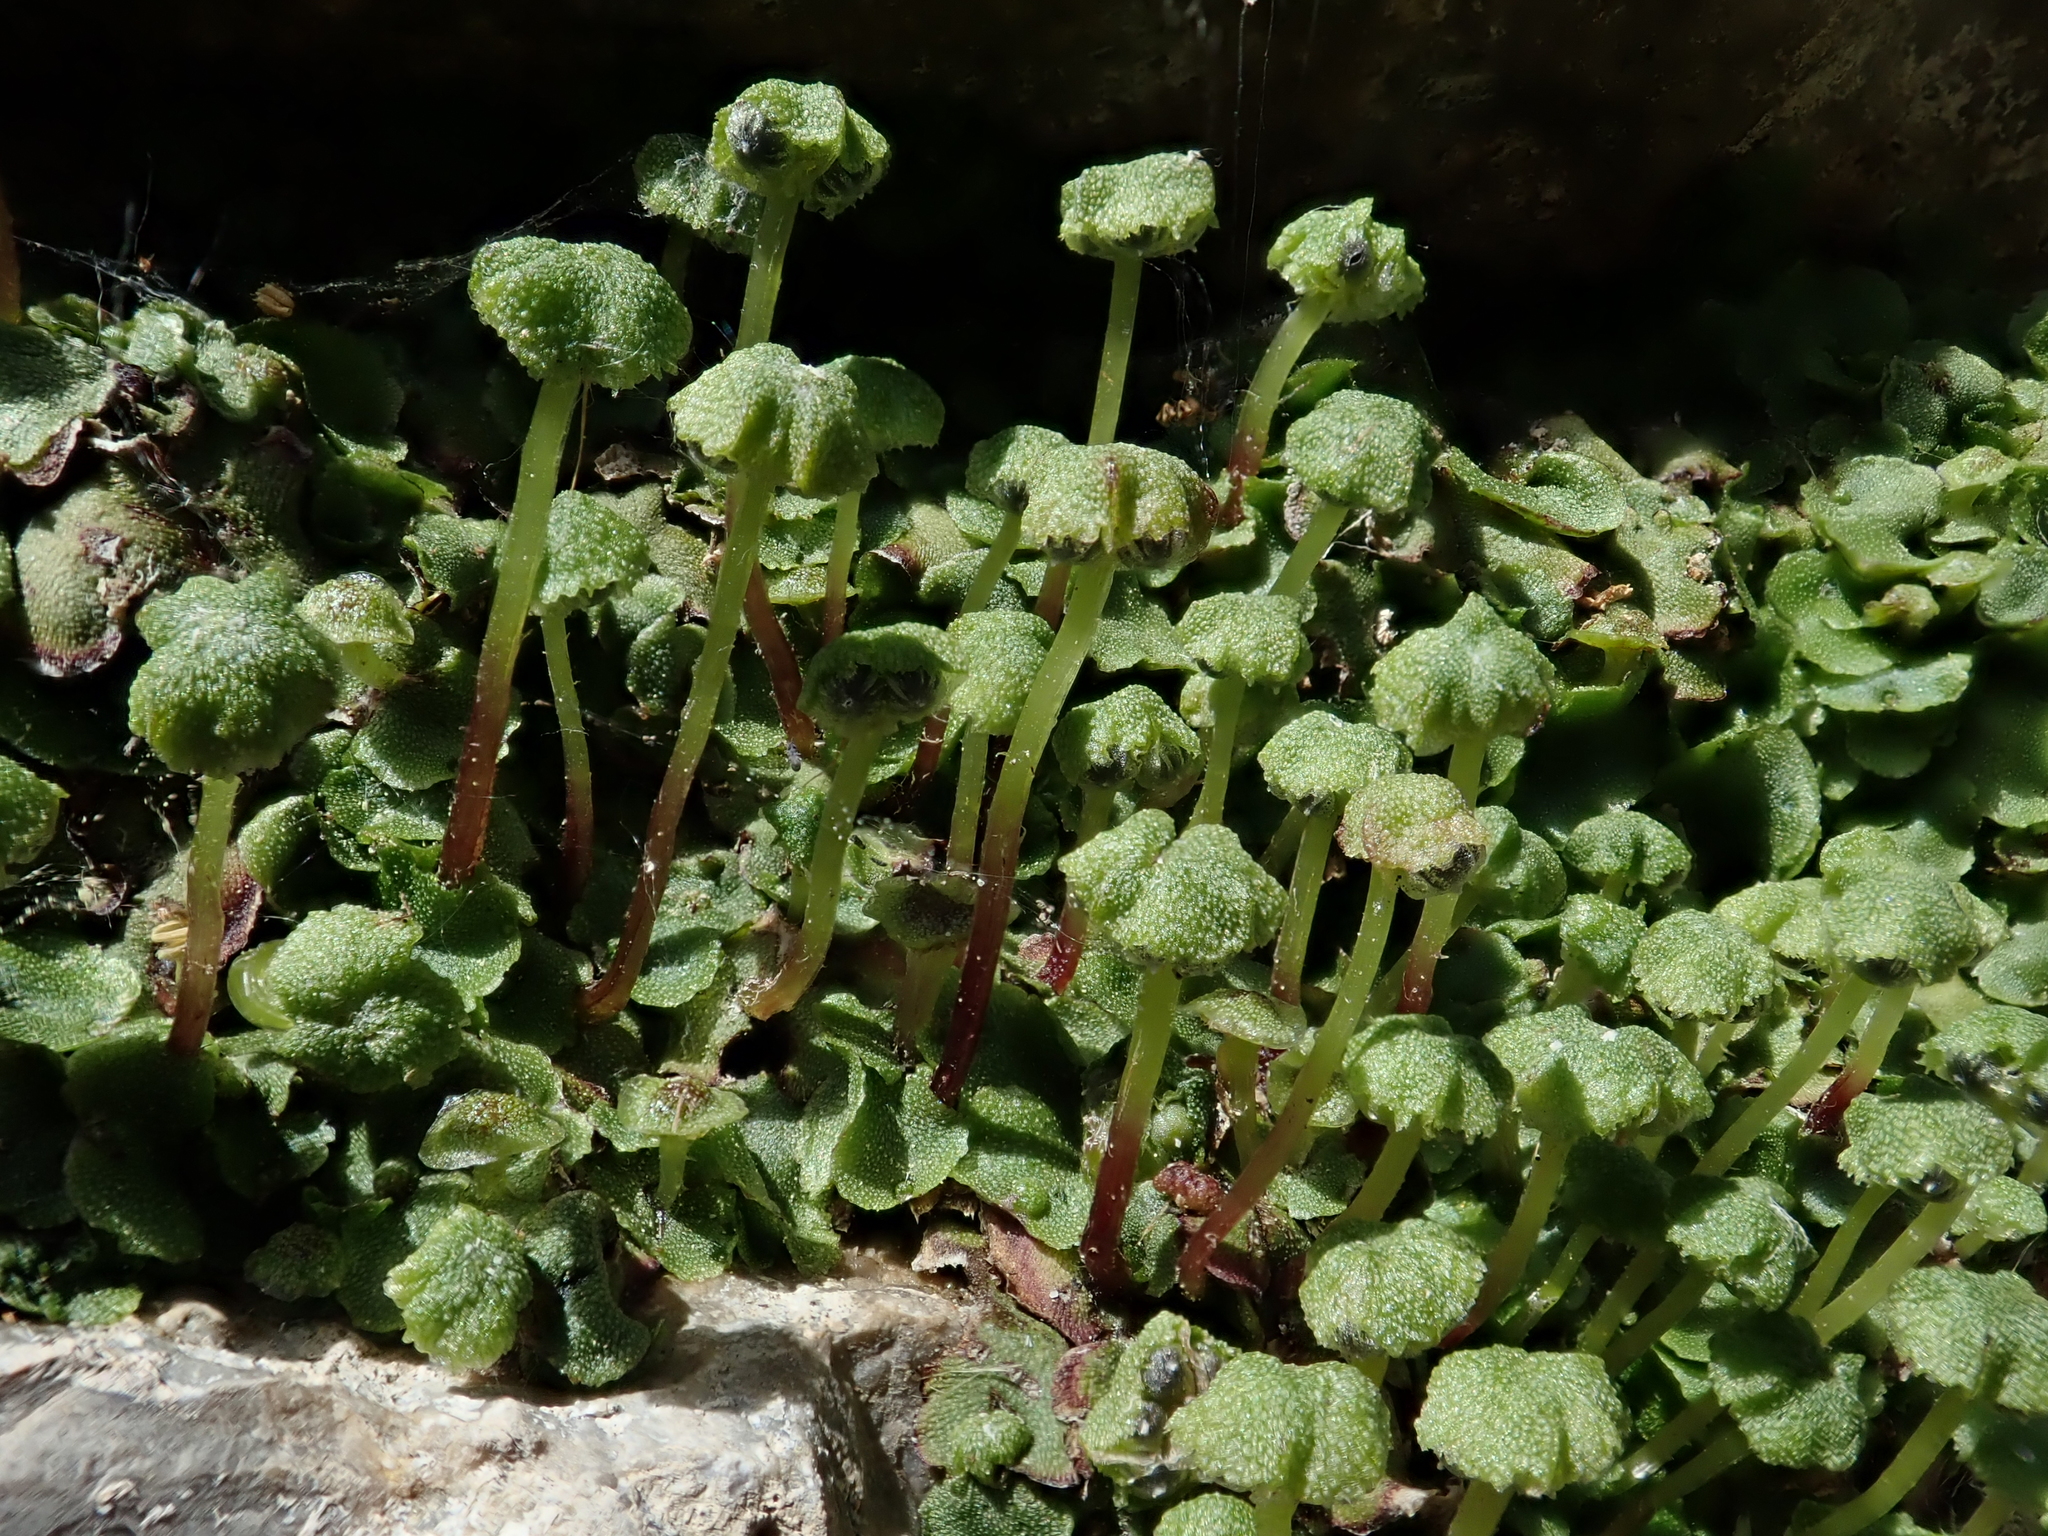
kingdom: Plantae
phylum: Marchantiophyta
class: Marchantiopsida
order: Marchantiales
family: Marchantiaceae
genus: Marchantia
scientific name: Marchantia quadrata
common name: Narrow mushroom-headed liverwort
